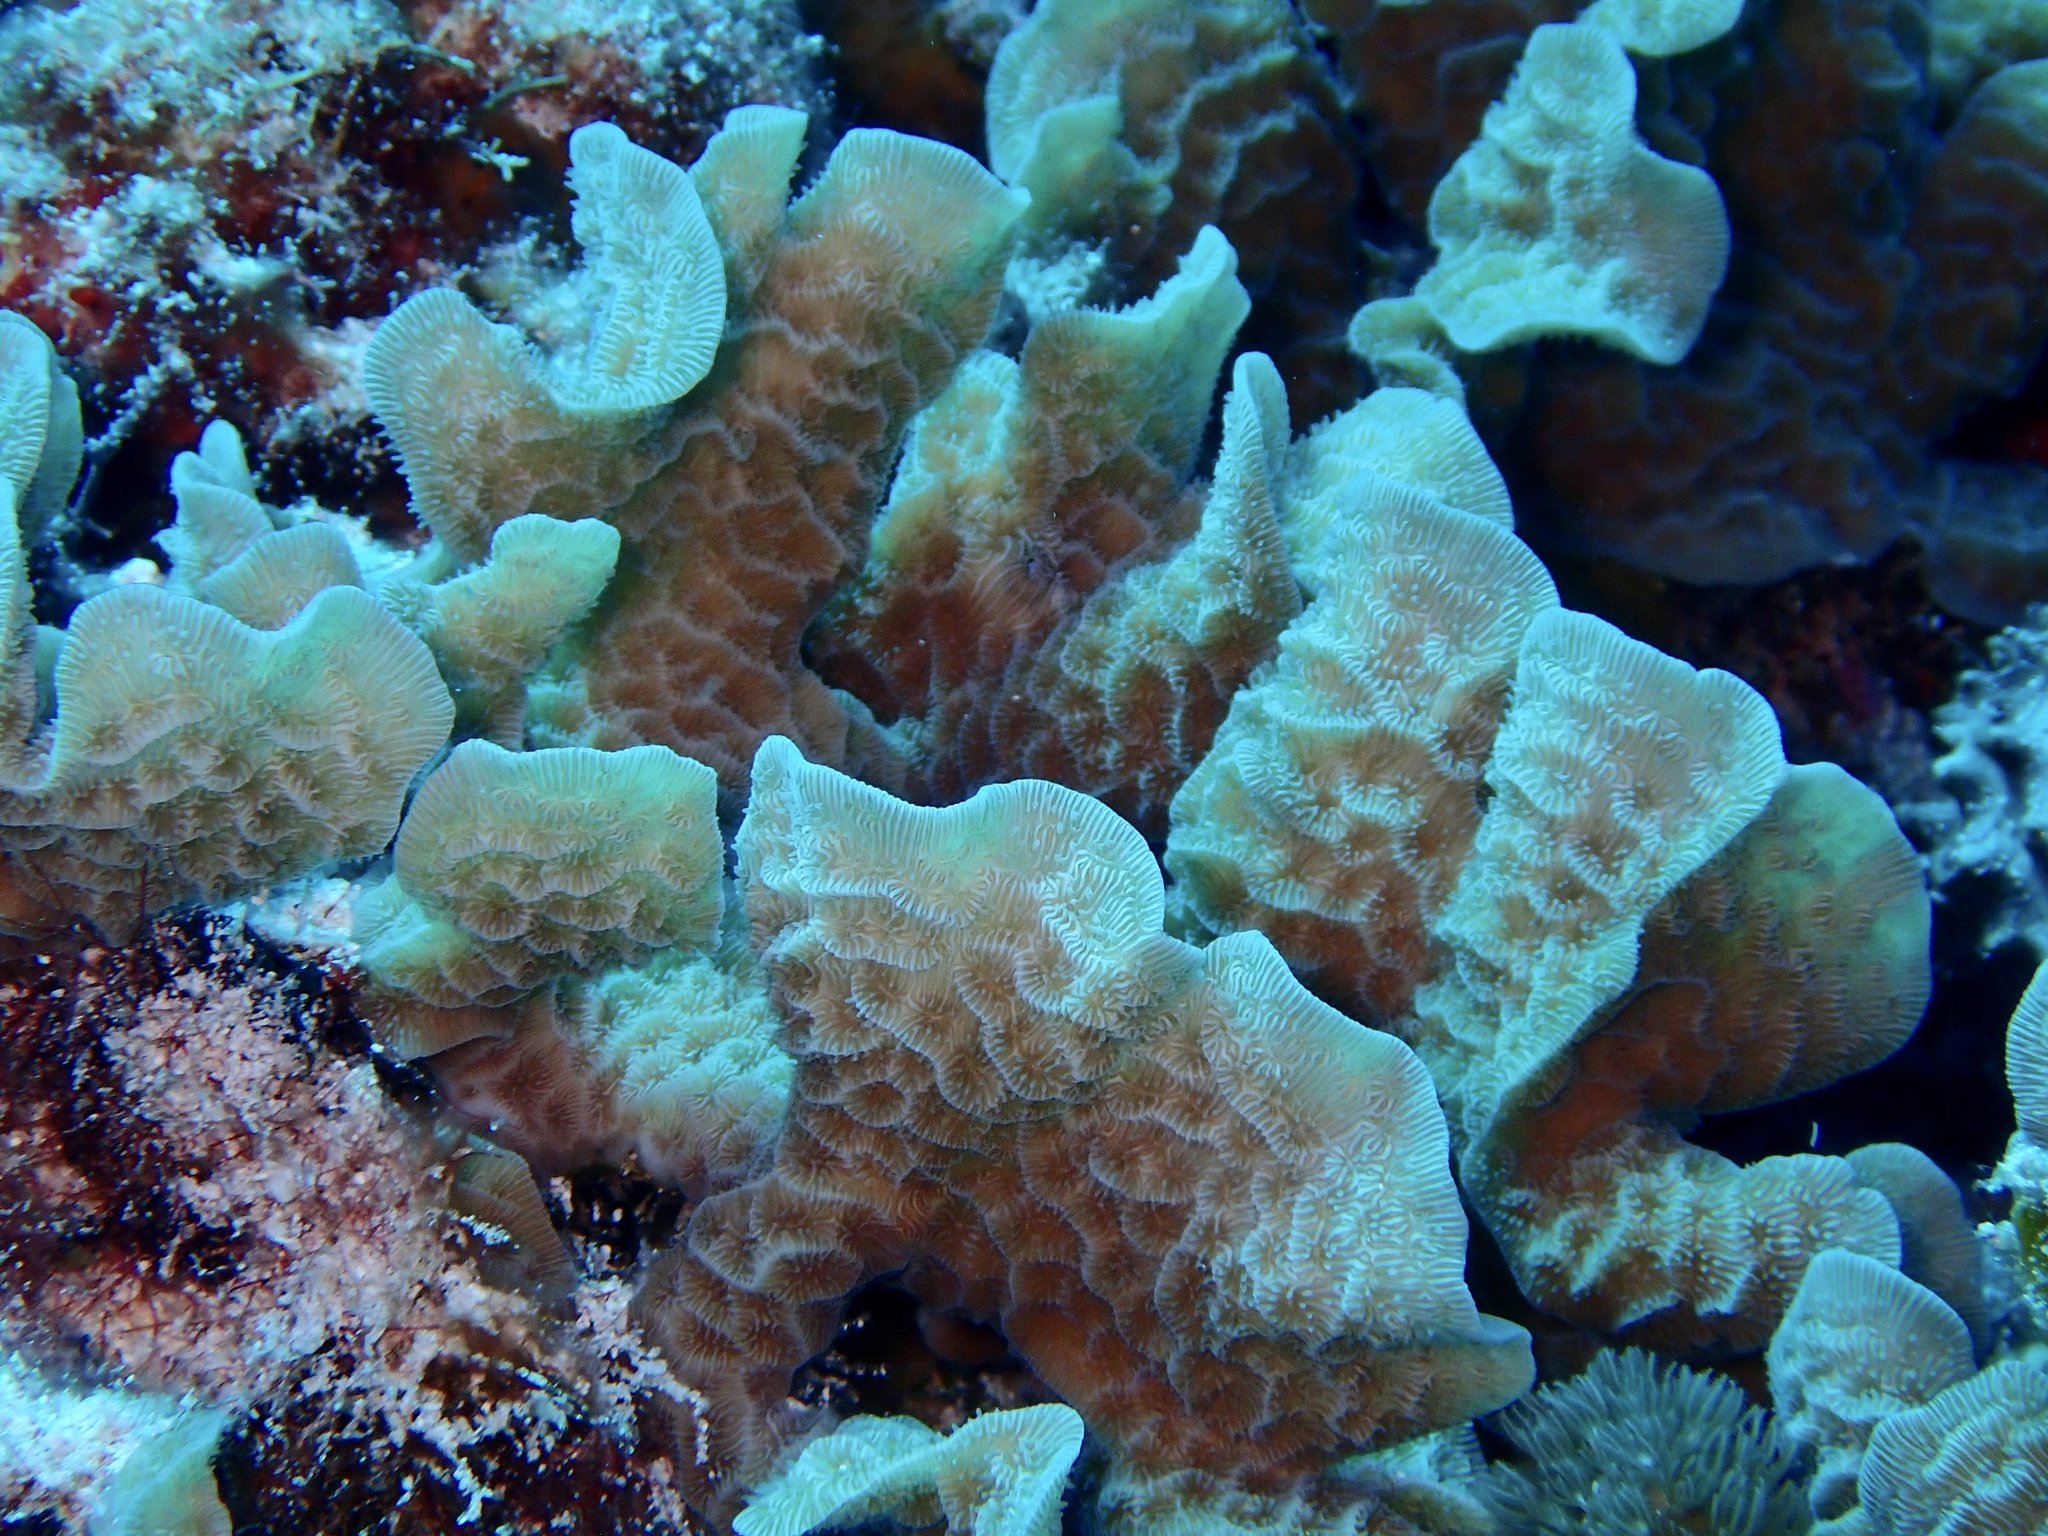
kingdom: Animalia
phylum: Cnidaria
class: Anthozoa
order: Scleractinia
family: Agariciidae
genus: Agaricia
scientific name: Agaricia tenuifolia
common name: Thin leaf lettuce coral
